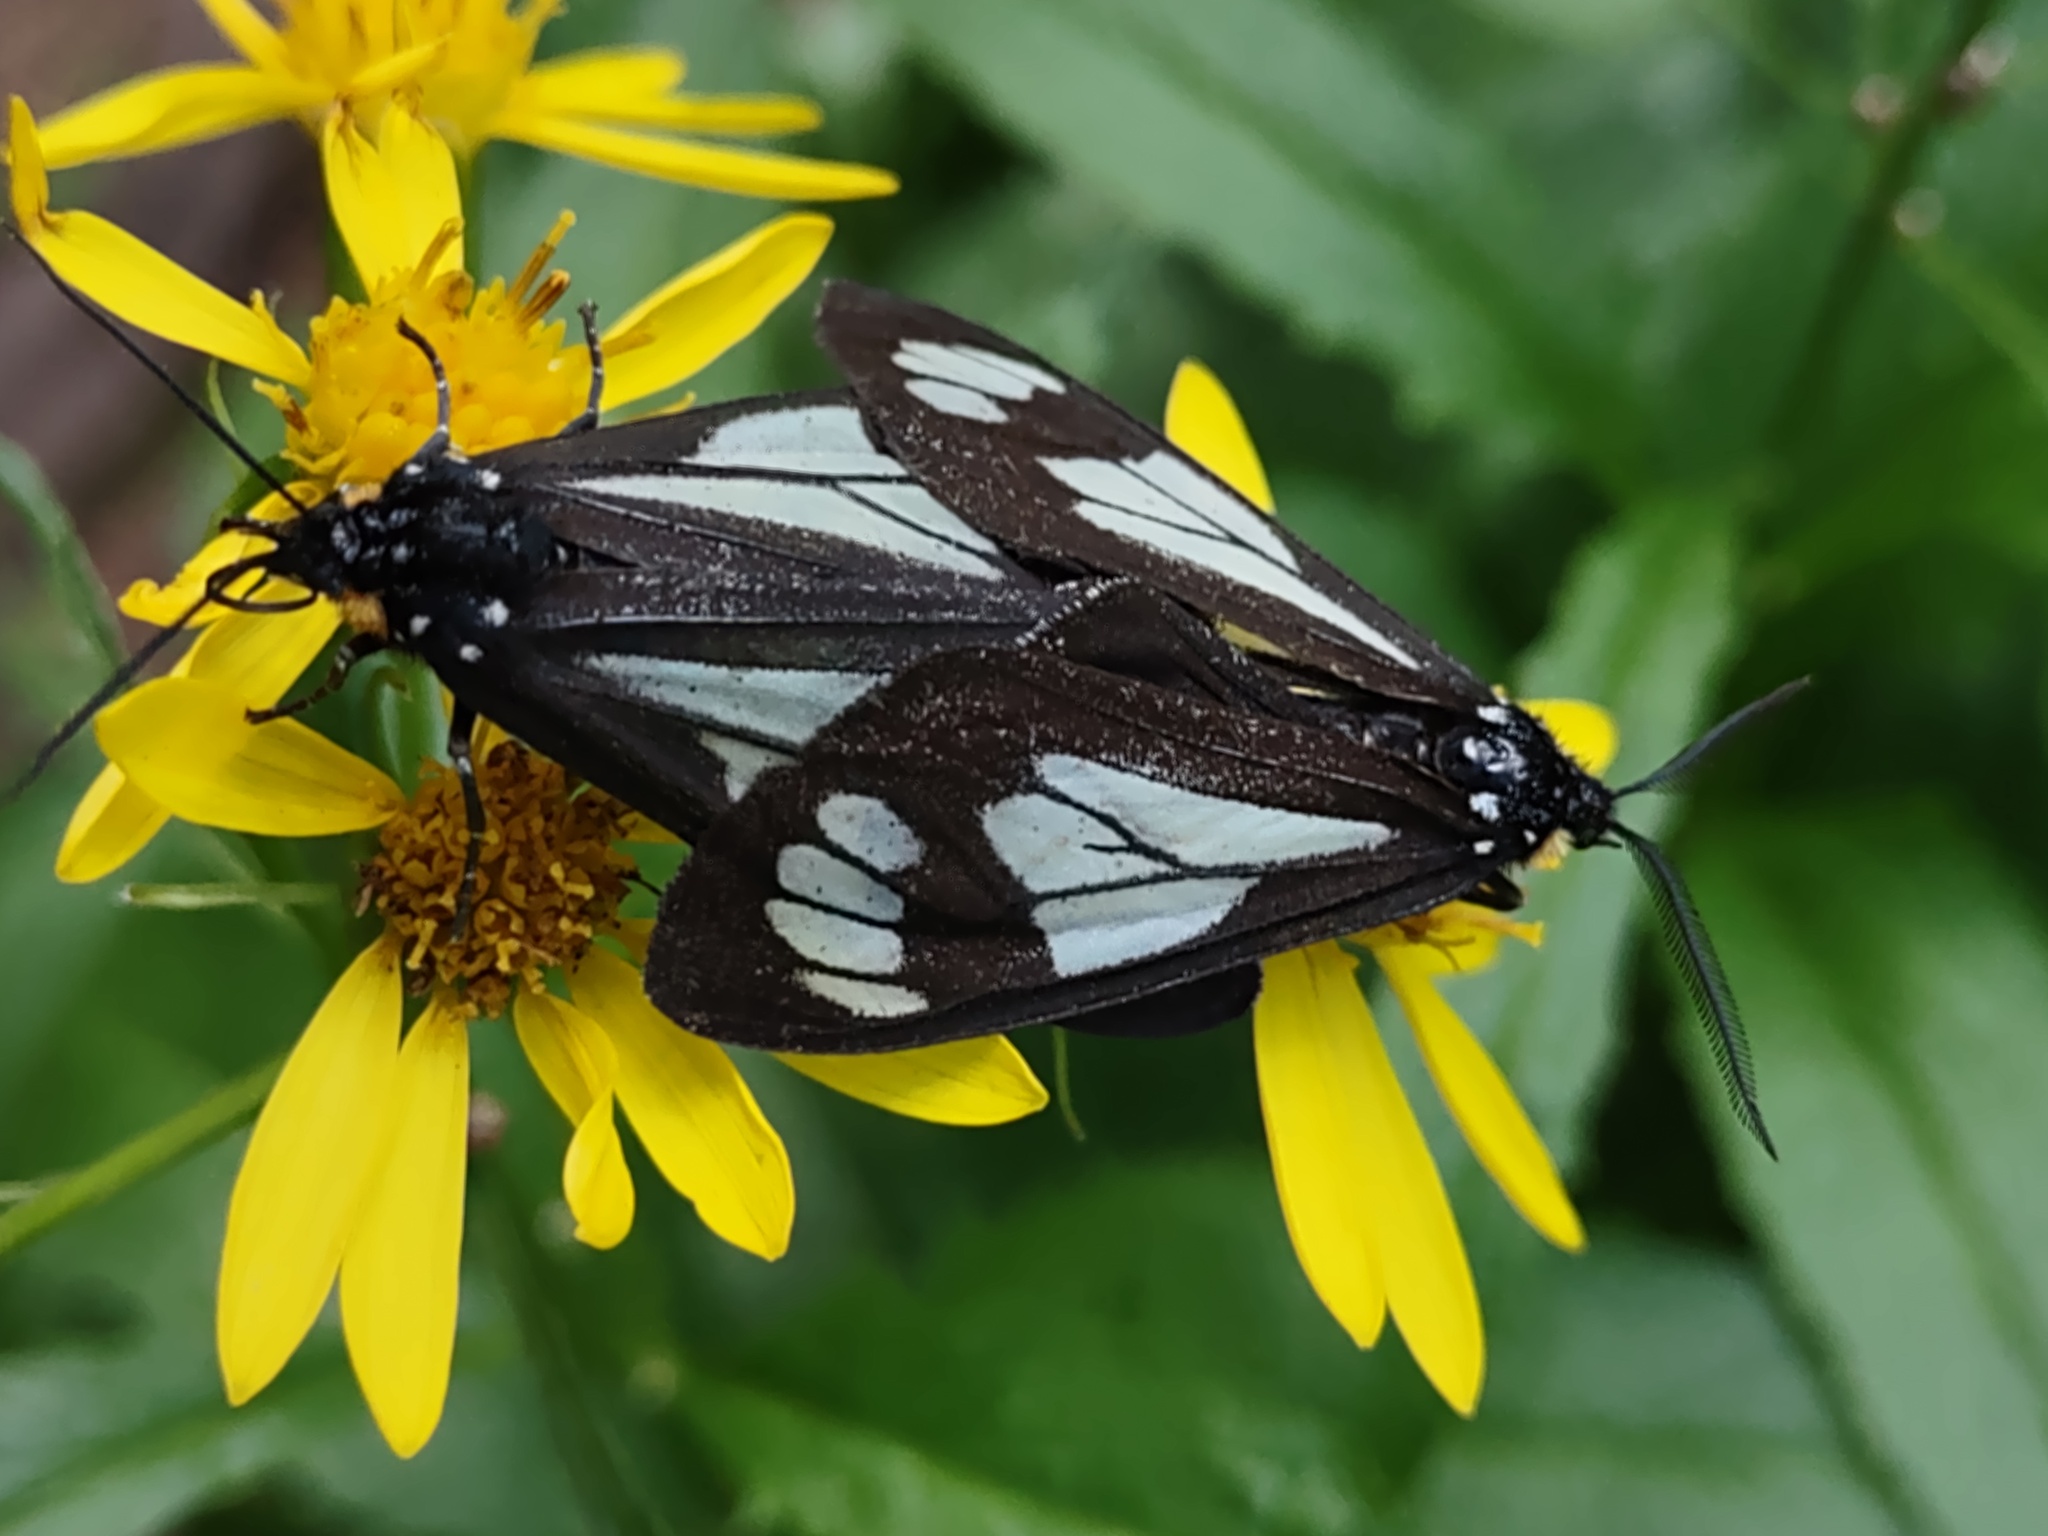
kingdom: Animalia
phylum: Arthropoda
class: Insecta
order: Lepidoptera
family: Erebidae
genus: Gnophaela
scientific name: Gnophaela vermiculata
